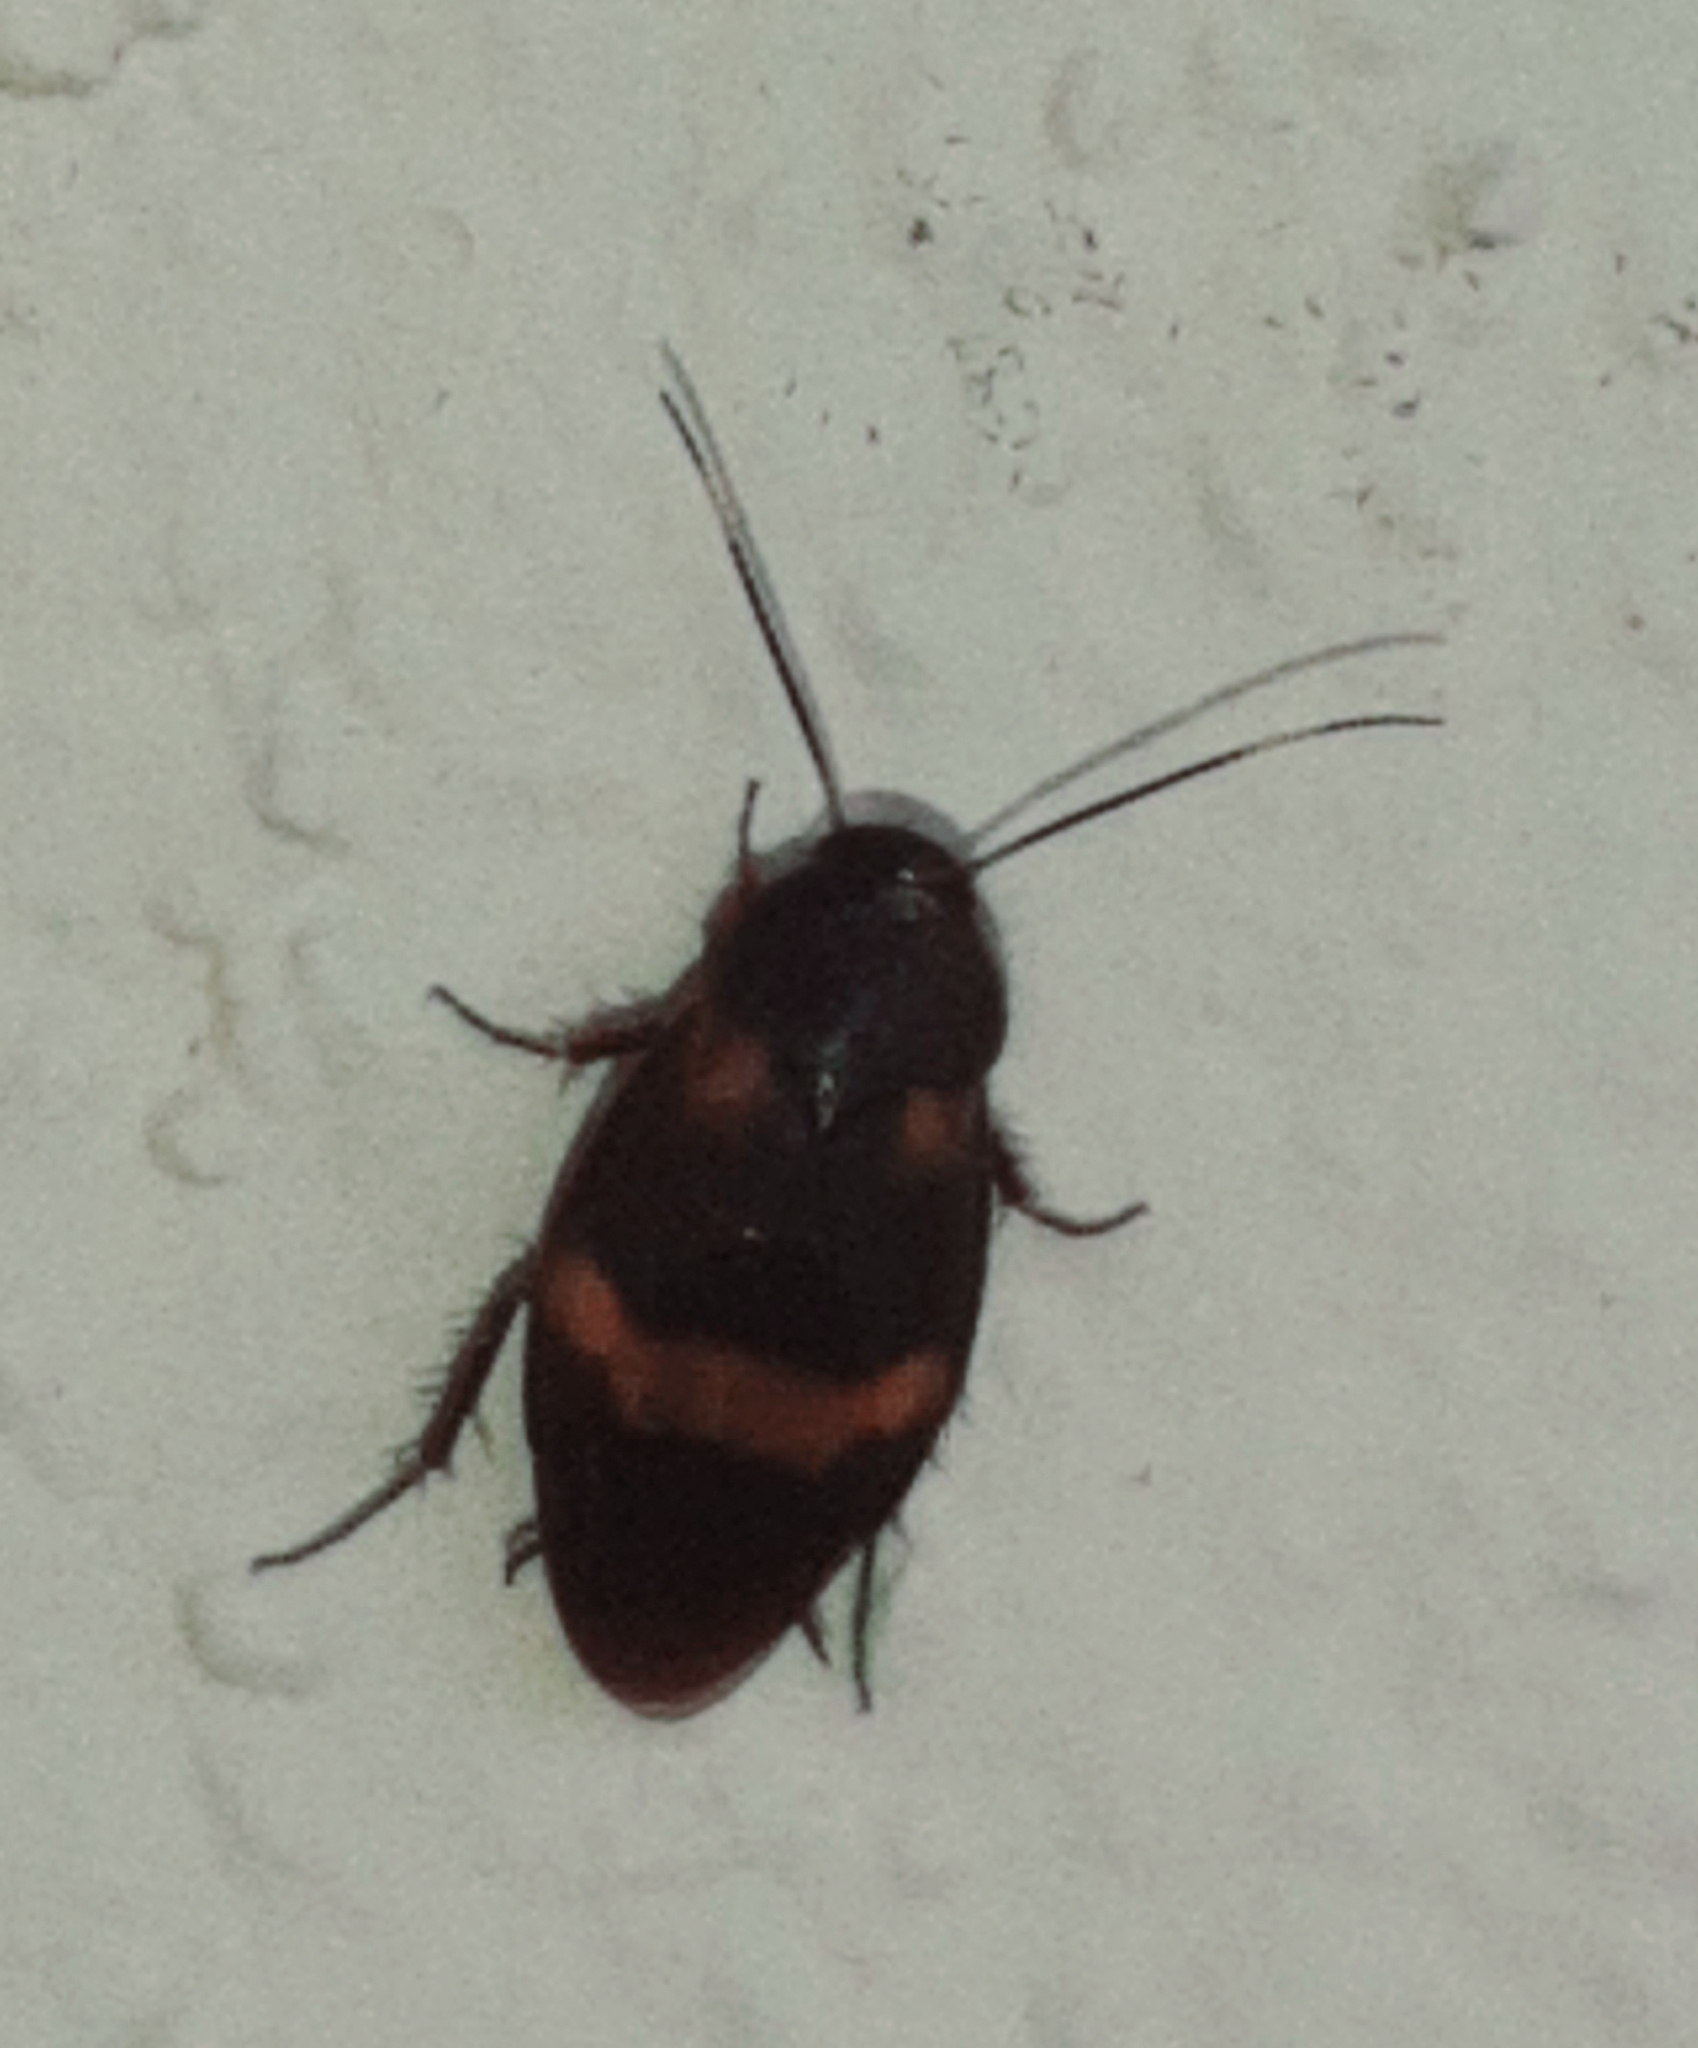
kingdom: Animalia
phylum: Arthropoda
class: Insecta
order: Blattodea
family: Corydiidae
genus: Holocompsa
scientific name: Holocompsa azteca
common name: Aztec hairy cockroach
